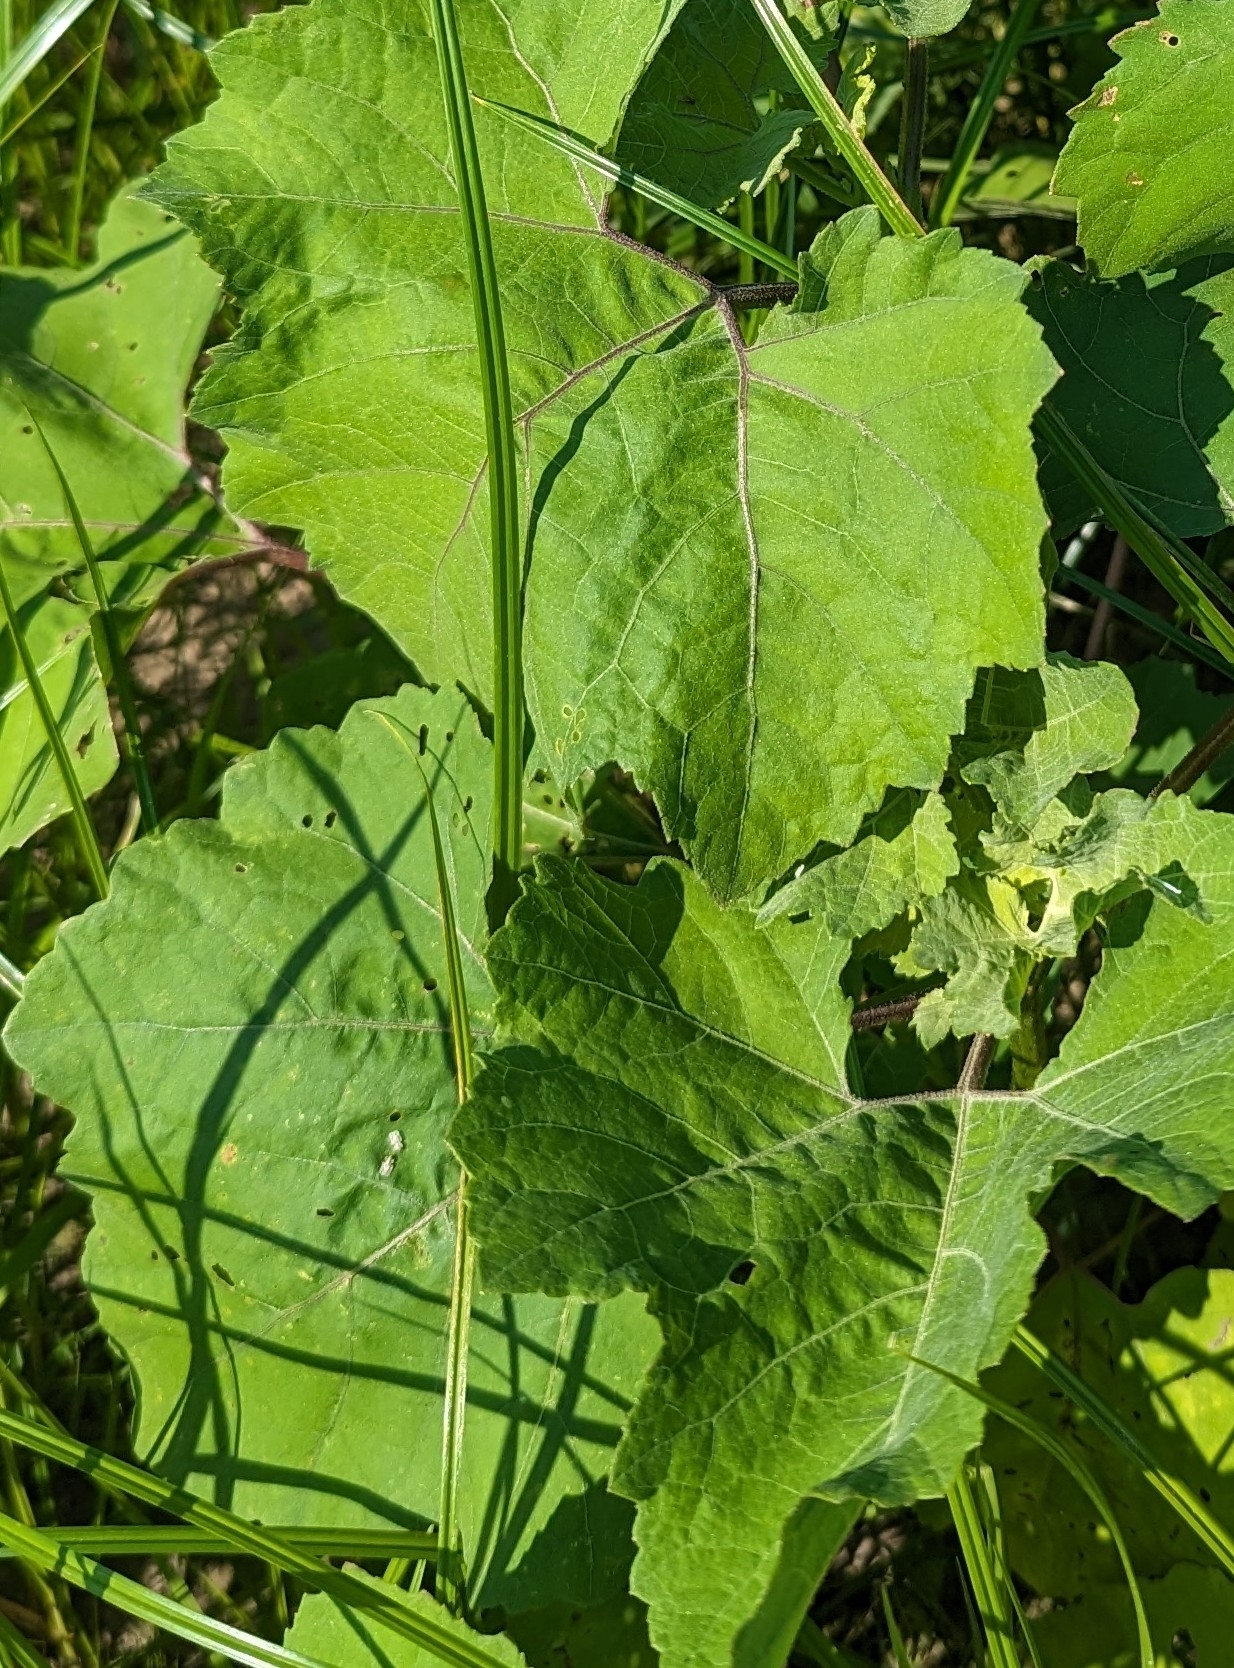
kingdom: Plantae
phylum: Tracheophyta
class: Magnoliopsida
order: Asterales
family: Asteraceae
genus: Xanthium
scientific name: Xanthium strumarium
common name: Rough cocklebur
